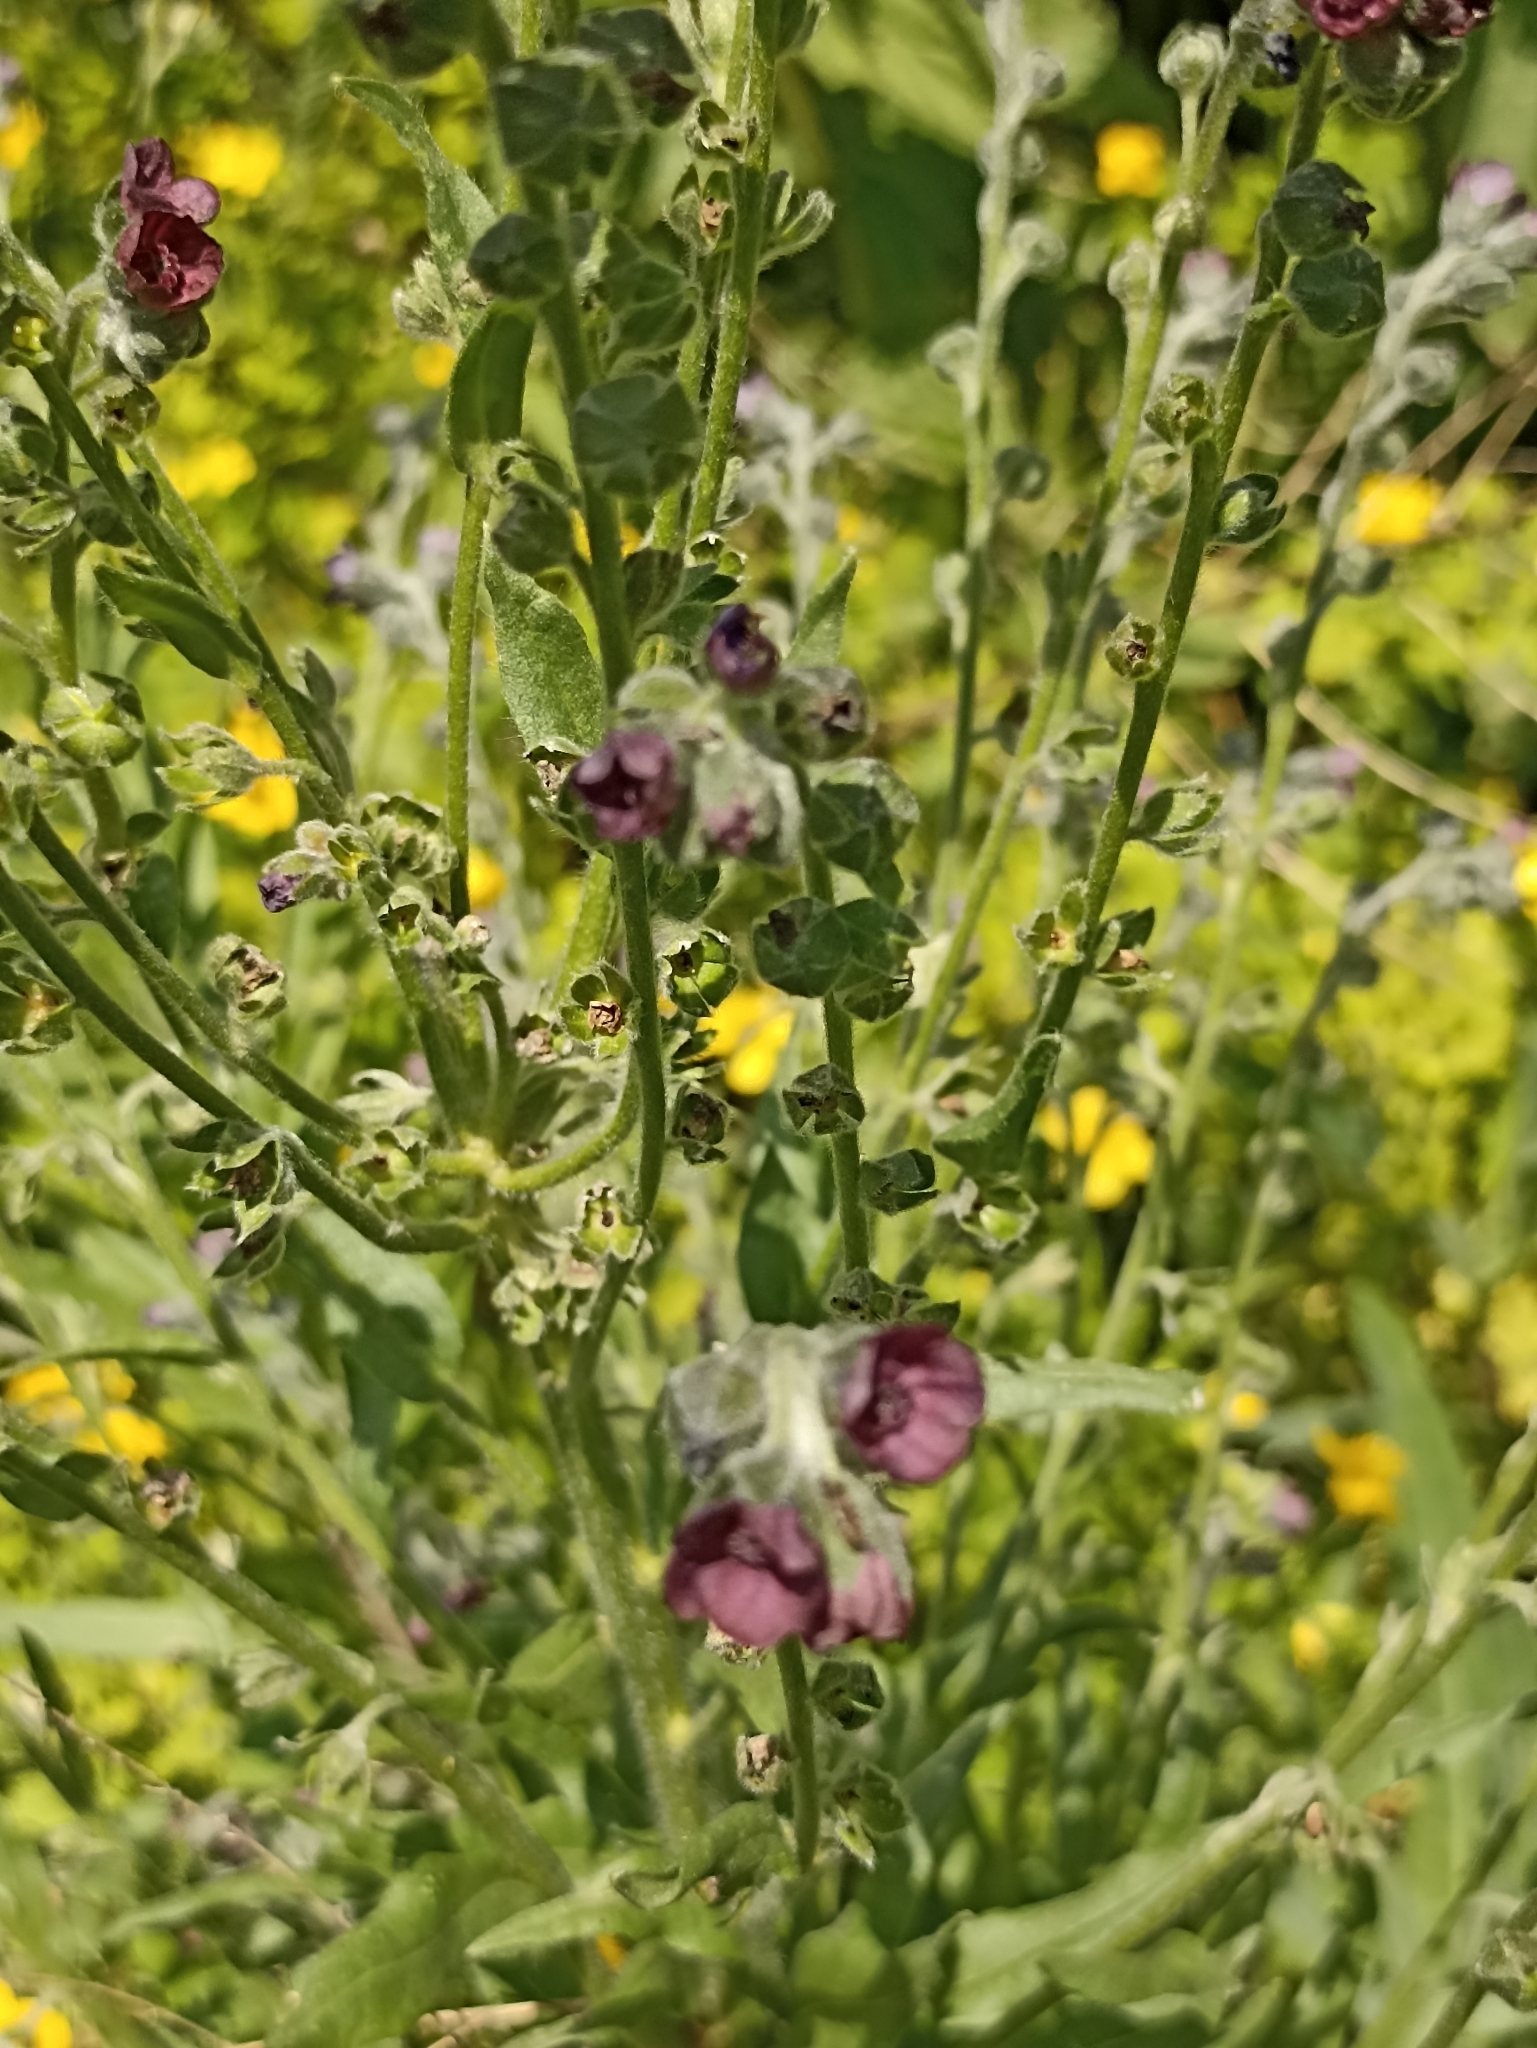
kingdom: Plantae
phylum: Tracheophyta
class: Magnoliopsida
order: Boraginales
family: Boraginaceae
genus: Cynoglossum
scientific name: Cynoglossum officinale
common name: Hound's-tongue
